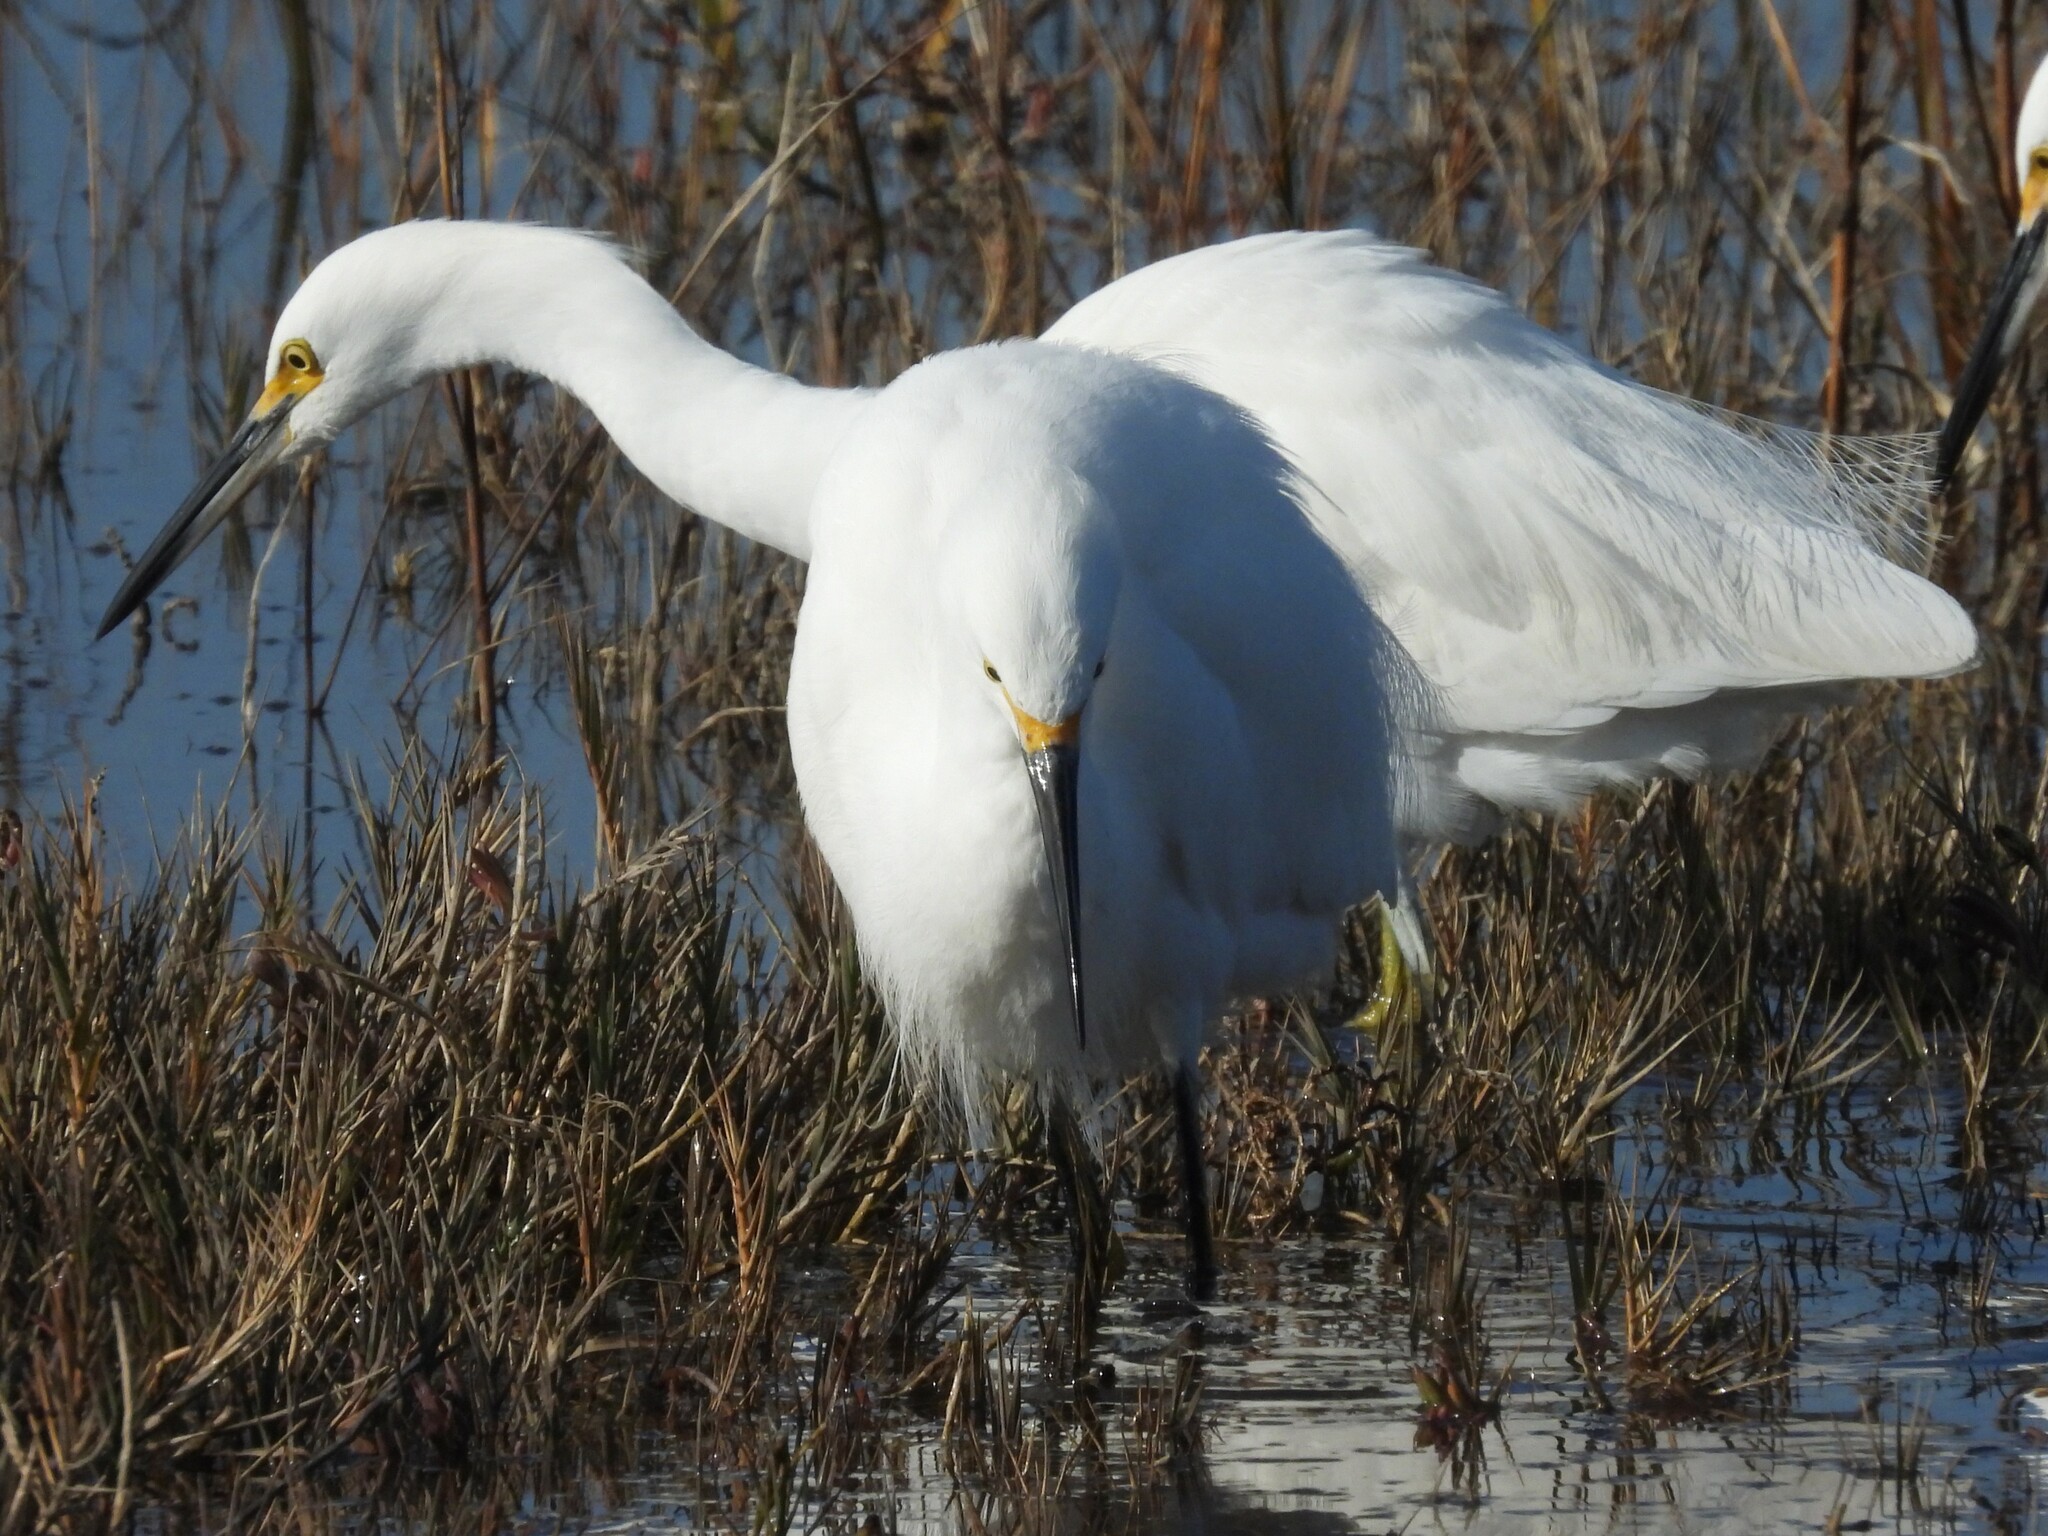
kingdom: Animalia
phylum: Chordata
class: Aves
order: Pelecaniformes
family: Ardeidae
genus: Egretta
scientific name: Egretta thula
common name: Snowy egret
